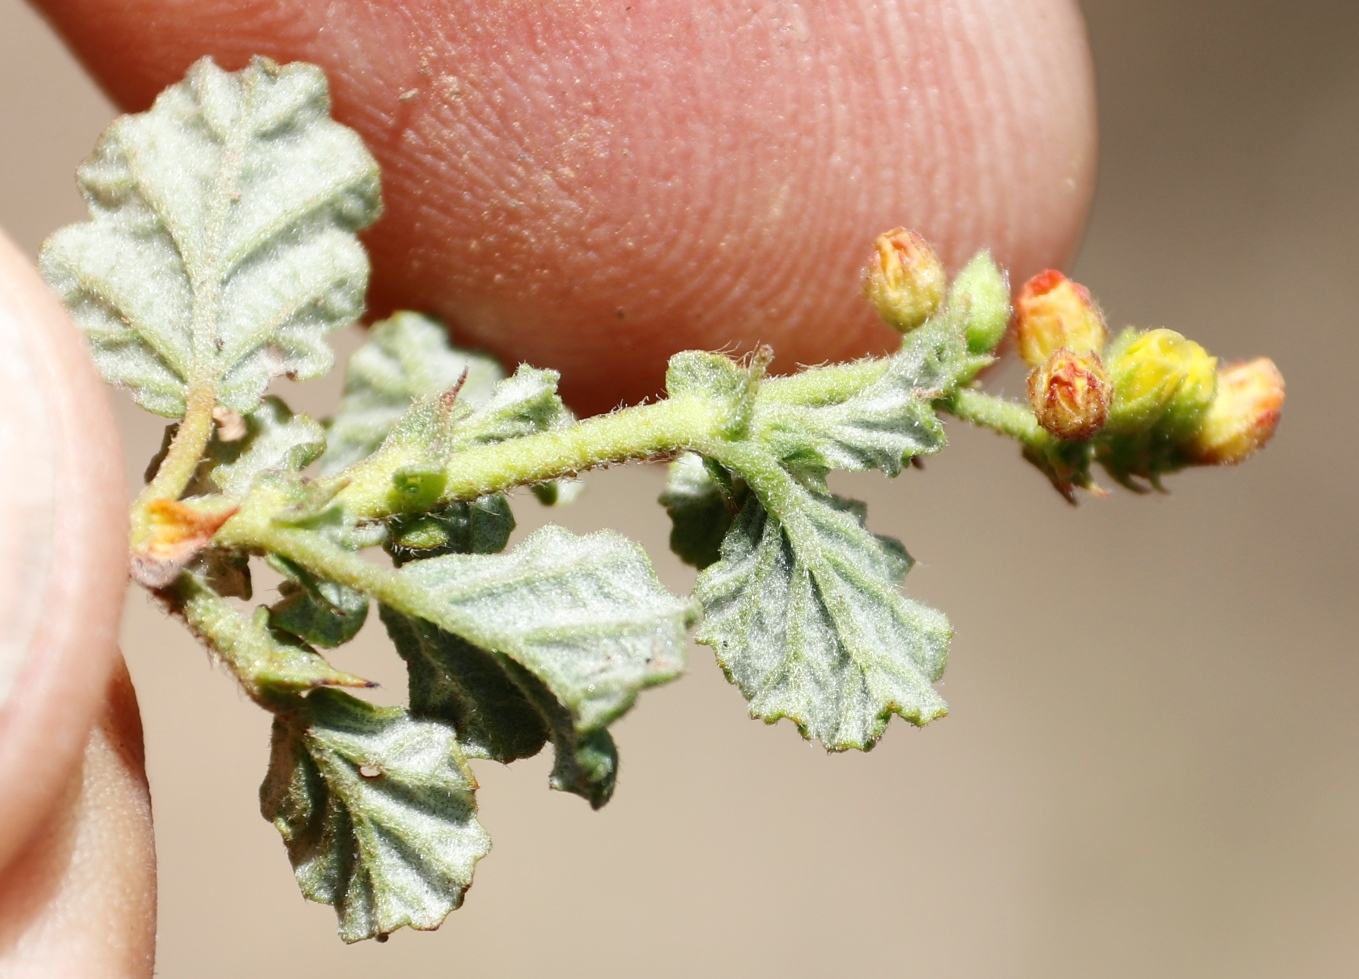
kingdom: Plantae
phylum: Tracheophyta
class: Magnoliopsida
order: Malvales
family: Malvaceae
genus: Hermannia
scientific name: Hermannia
